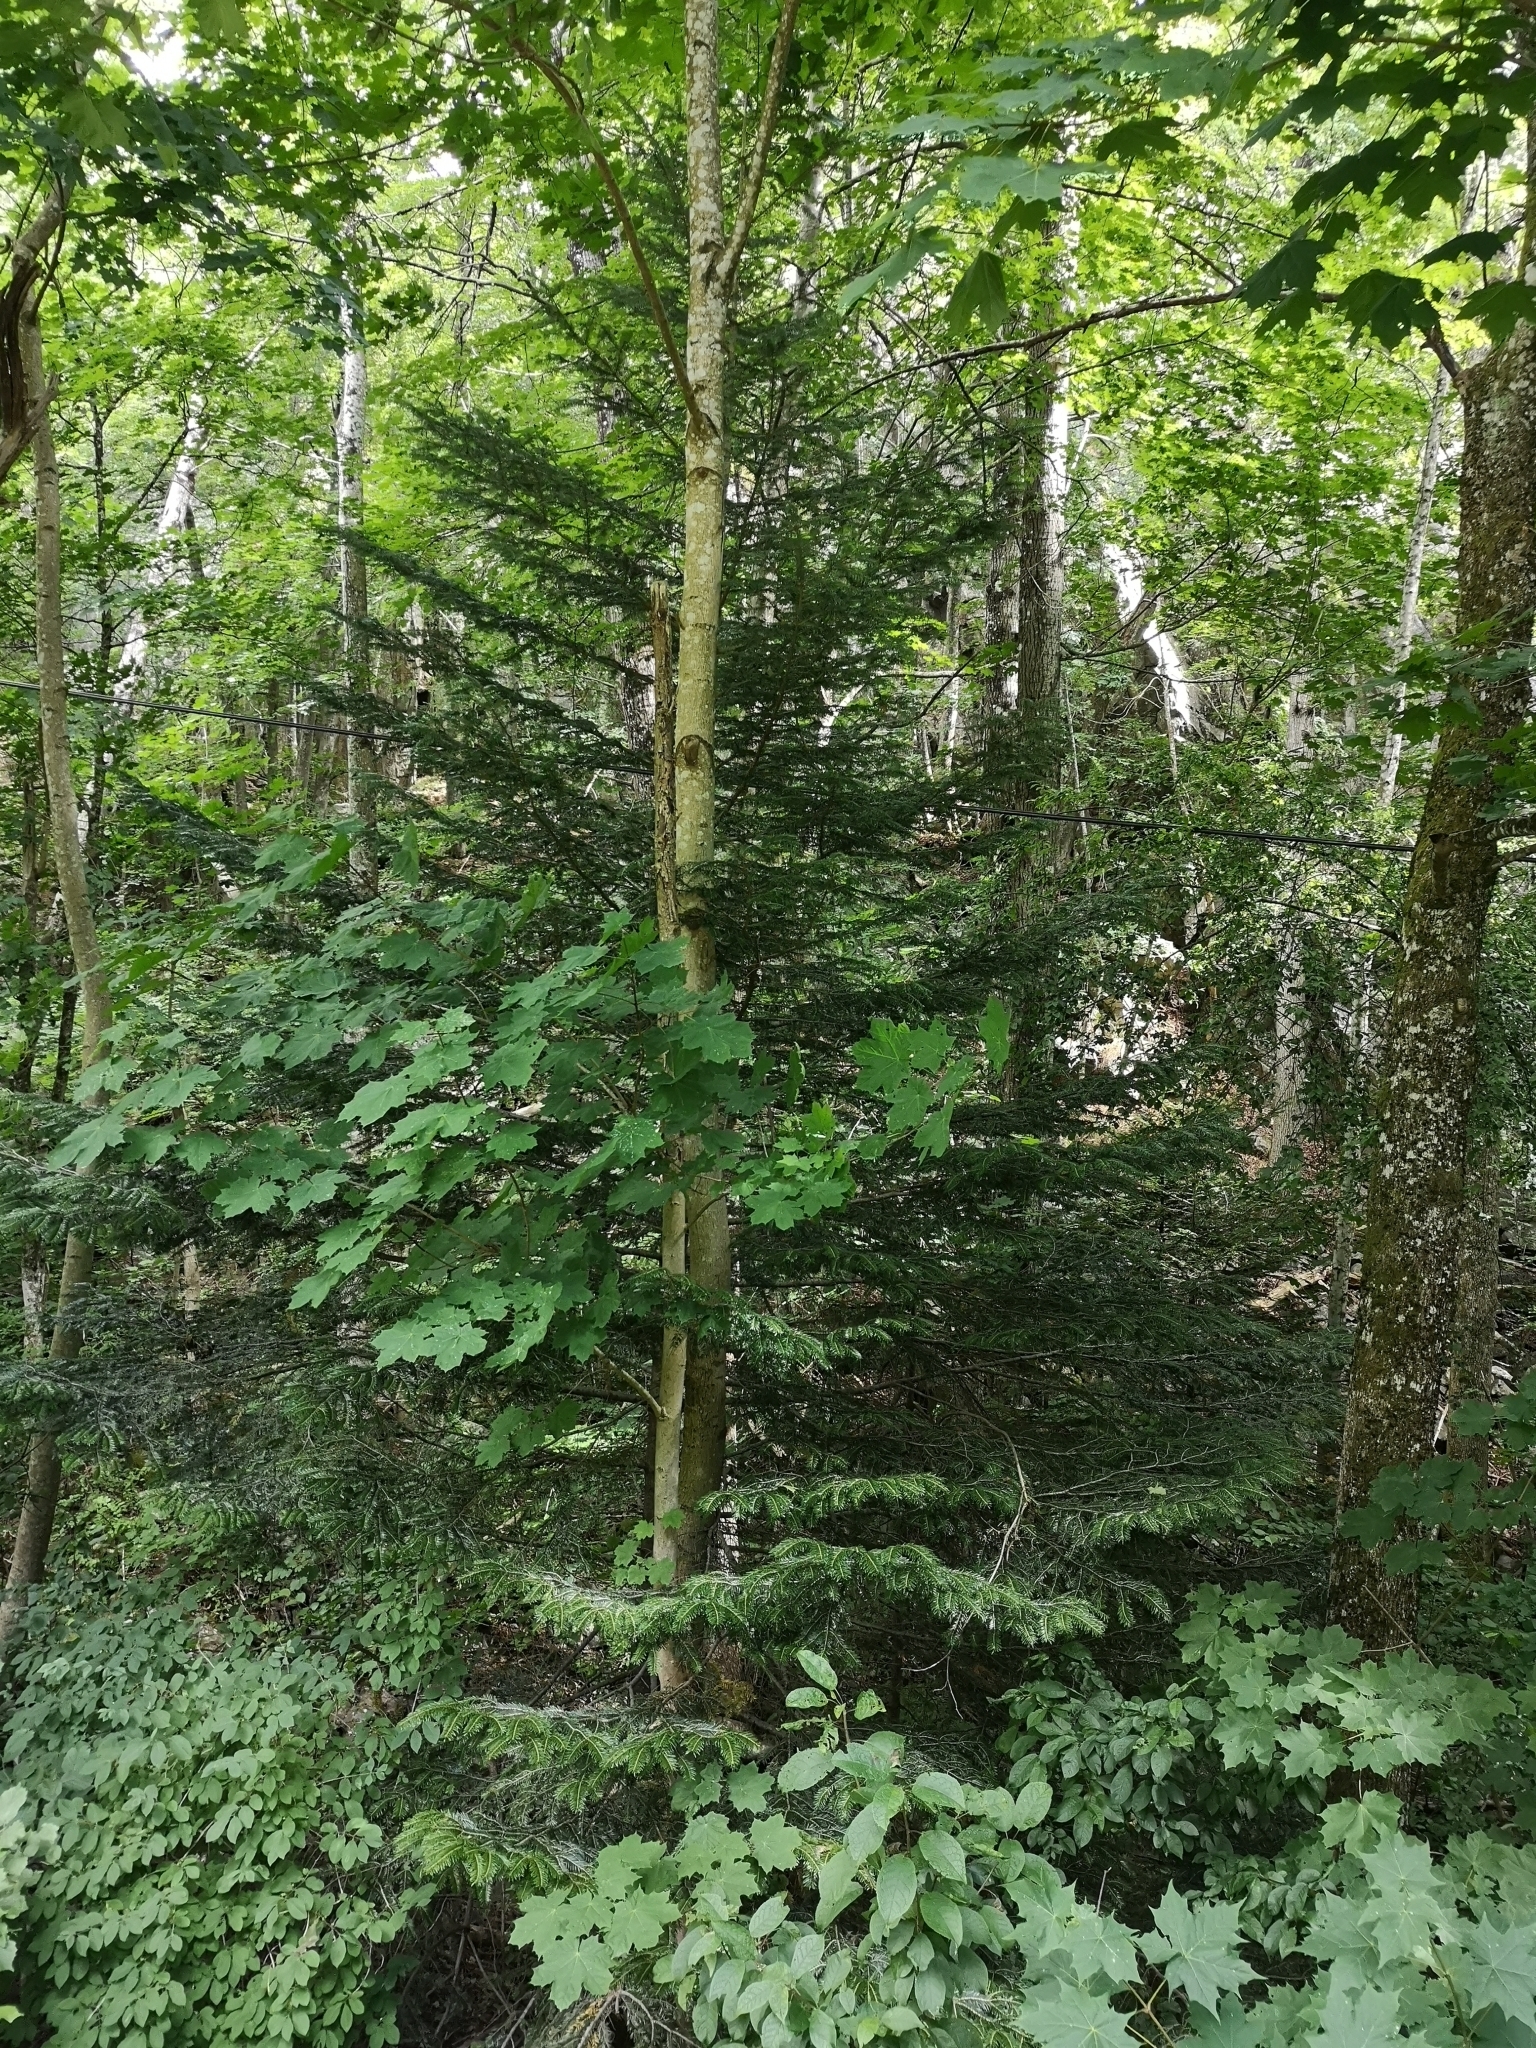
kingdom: Plantae
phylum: Tracheophyta
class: Pinopsida
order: Pinales
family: Pinaceae
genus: Abies
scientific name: Abies alba
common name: Silver fir
